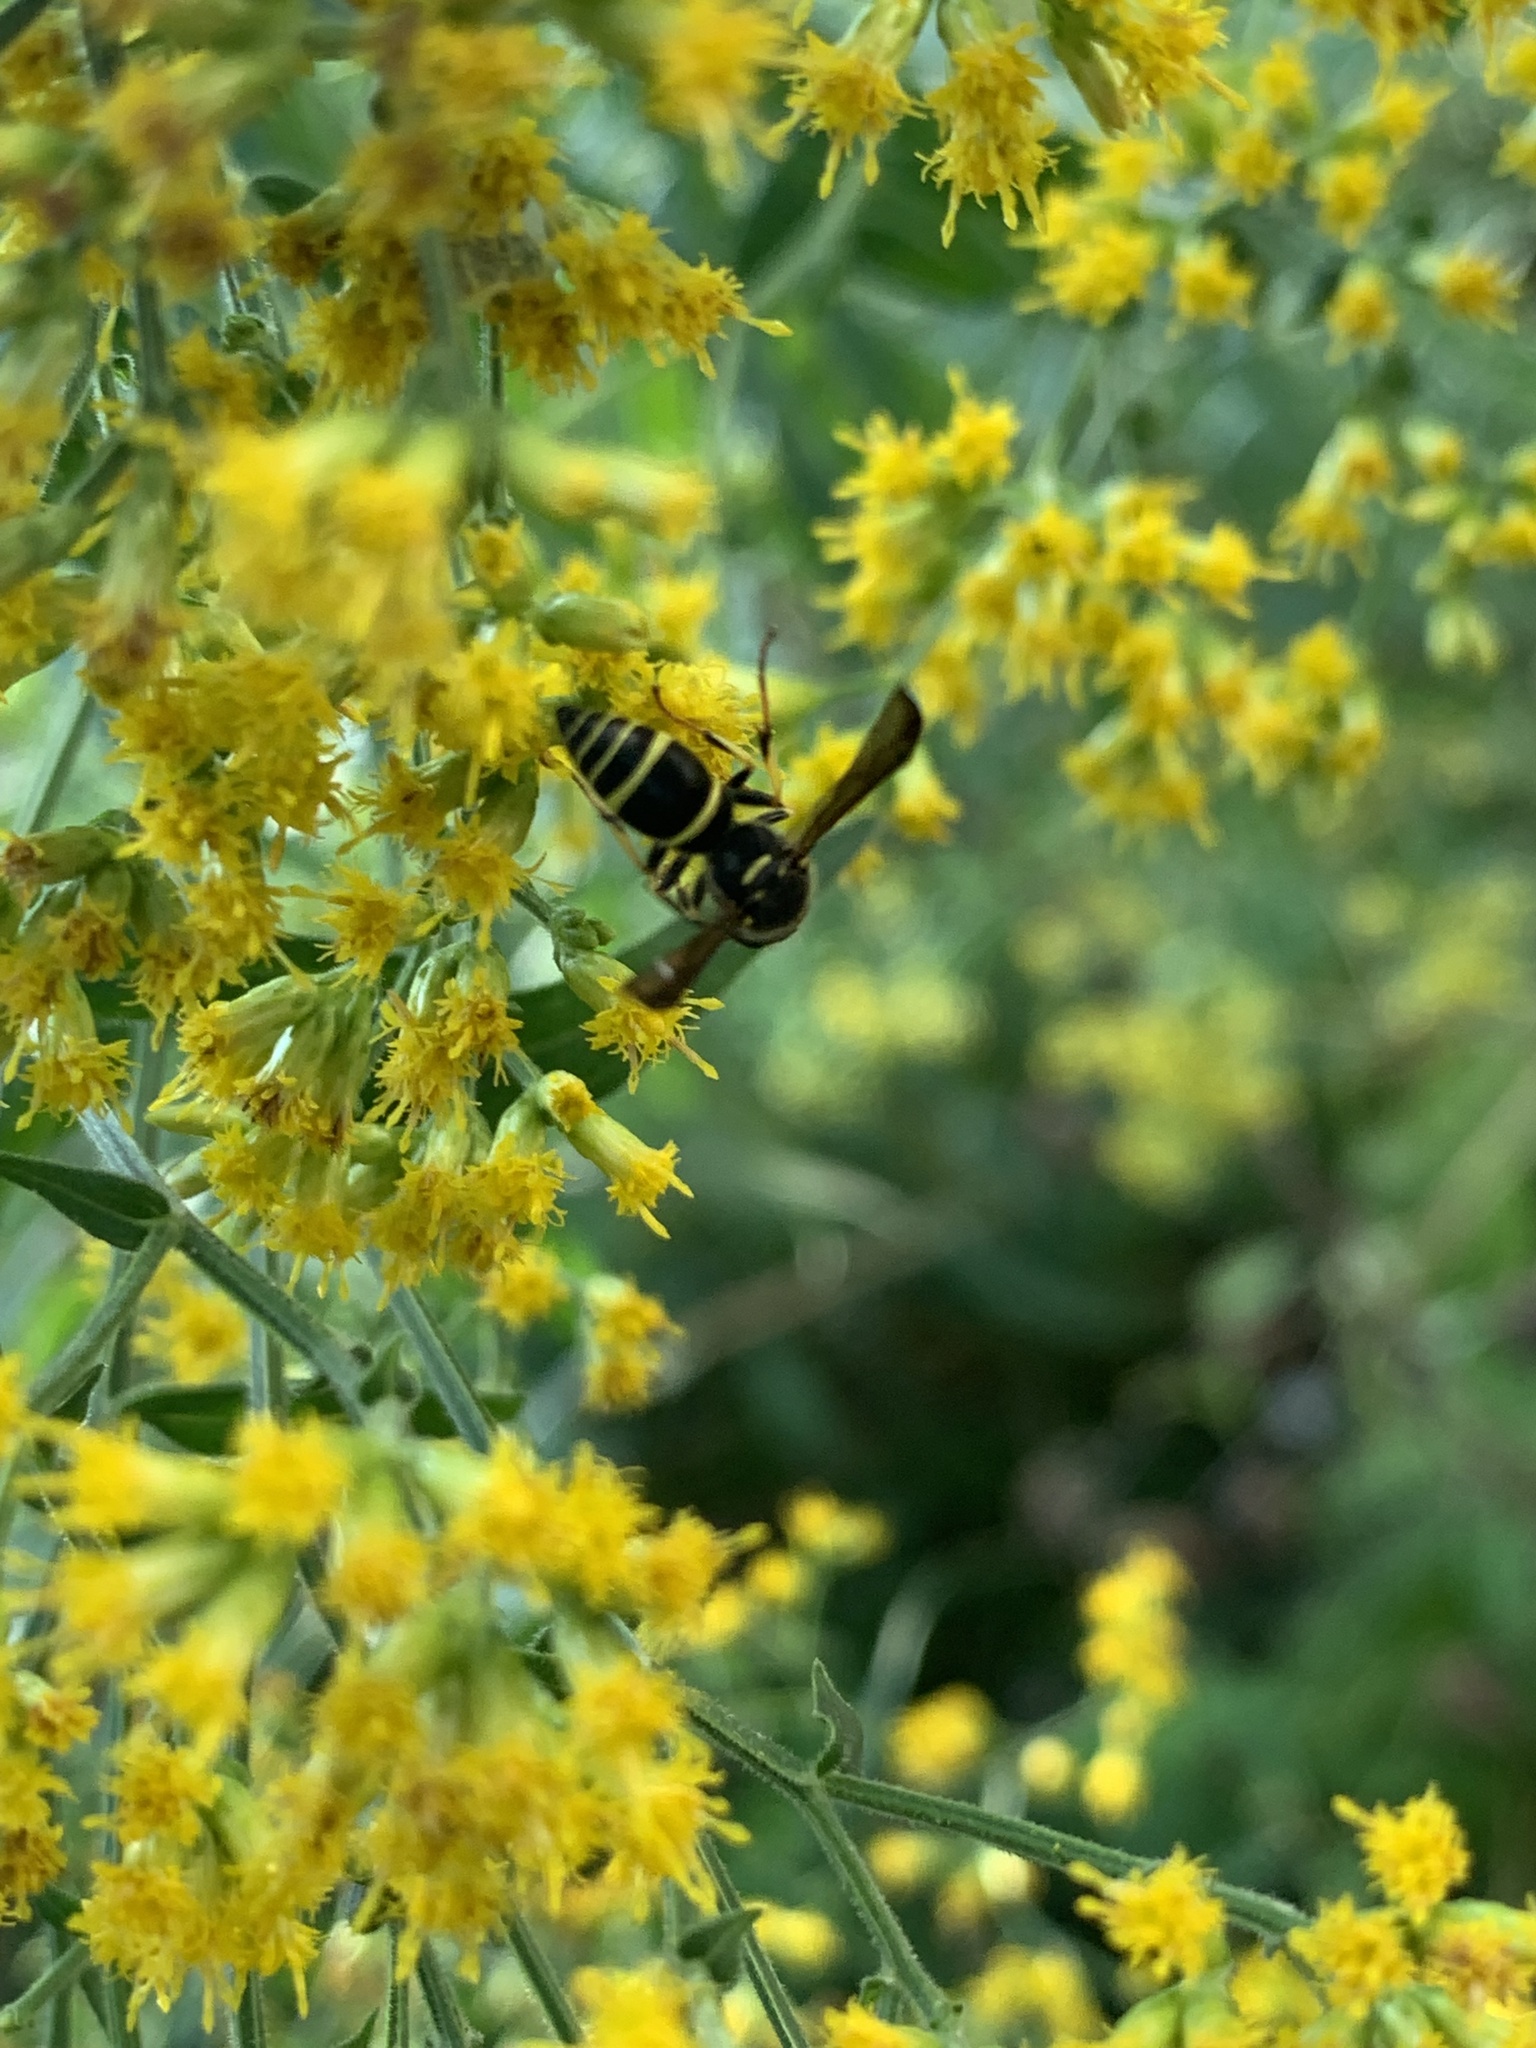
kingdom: Animalia
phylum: Arthropoda
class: Insecta
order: Hymenoptera
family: Vespidae
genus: Ancistrocerus
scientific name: Ancistrocerus adiabatus
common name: Bramble mason wasp
